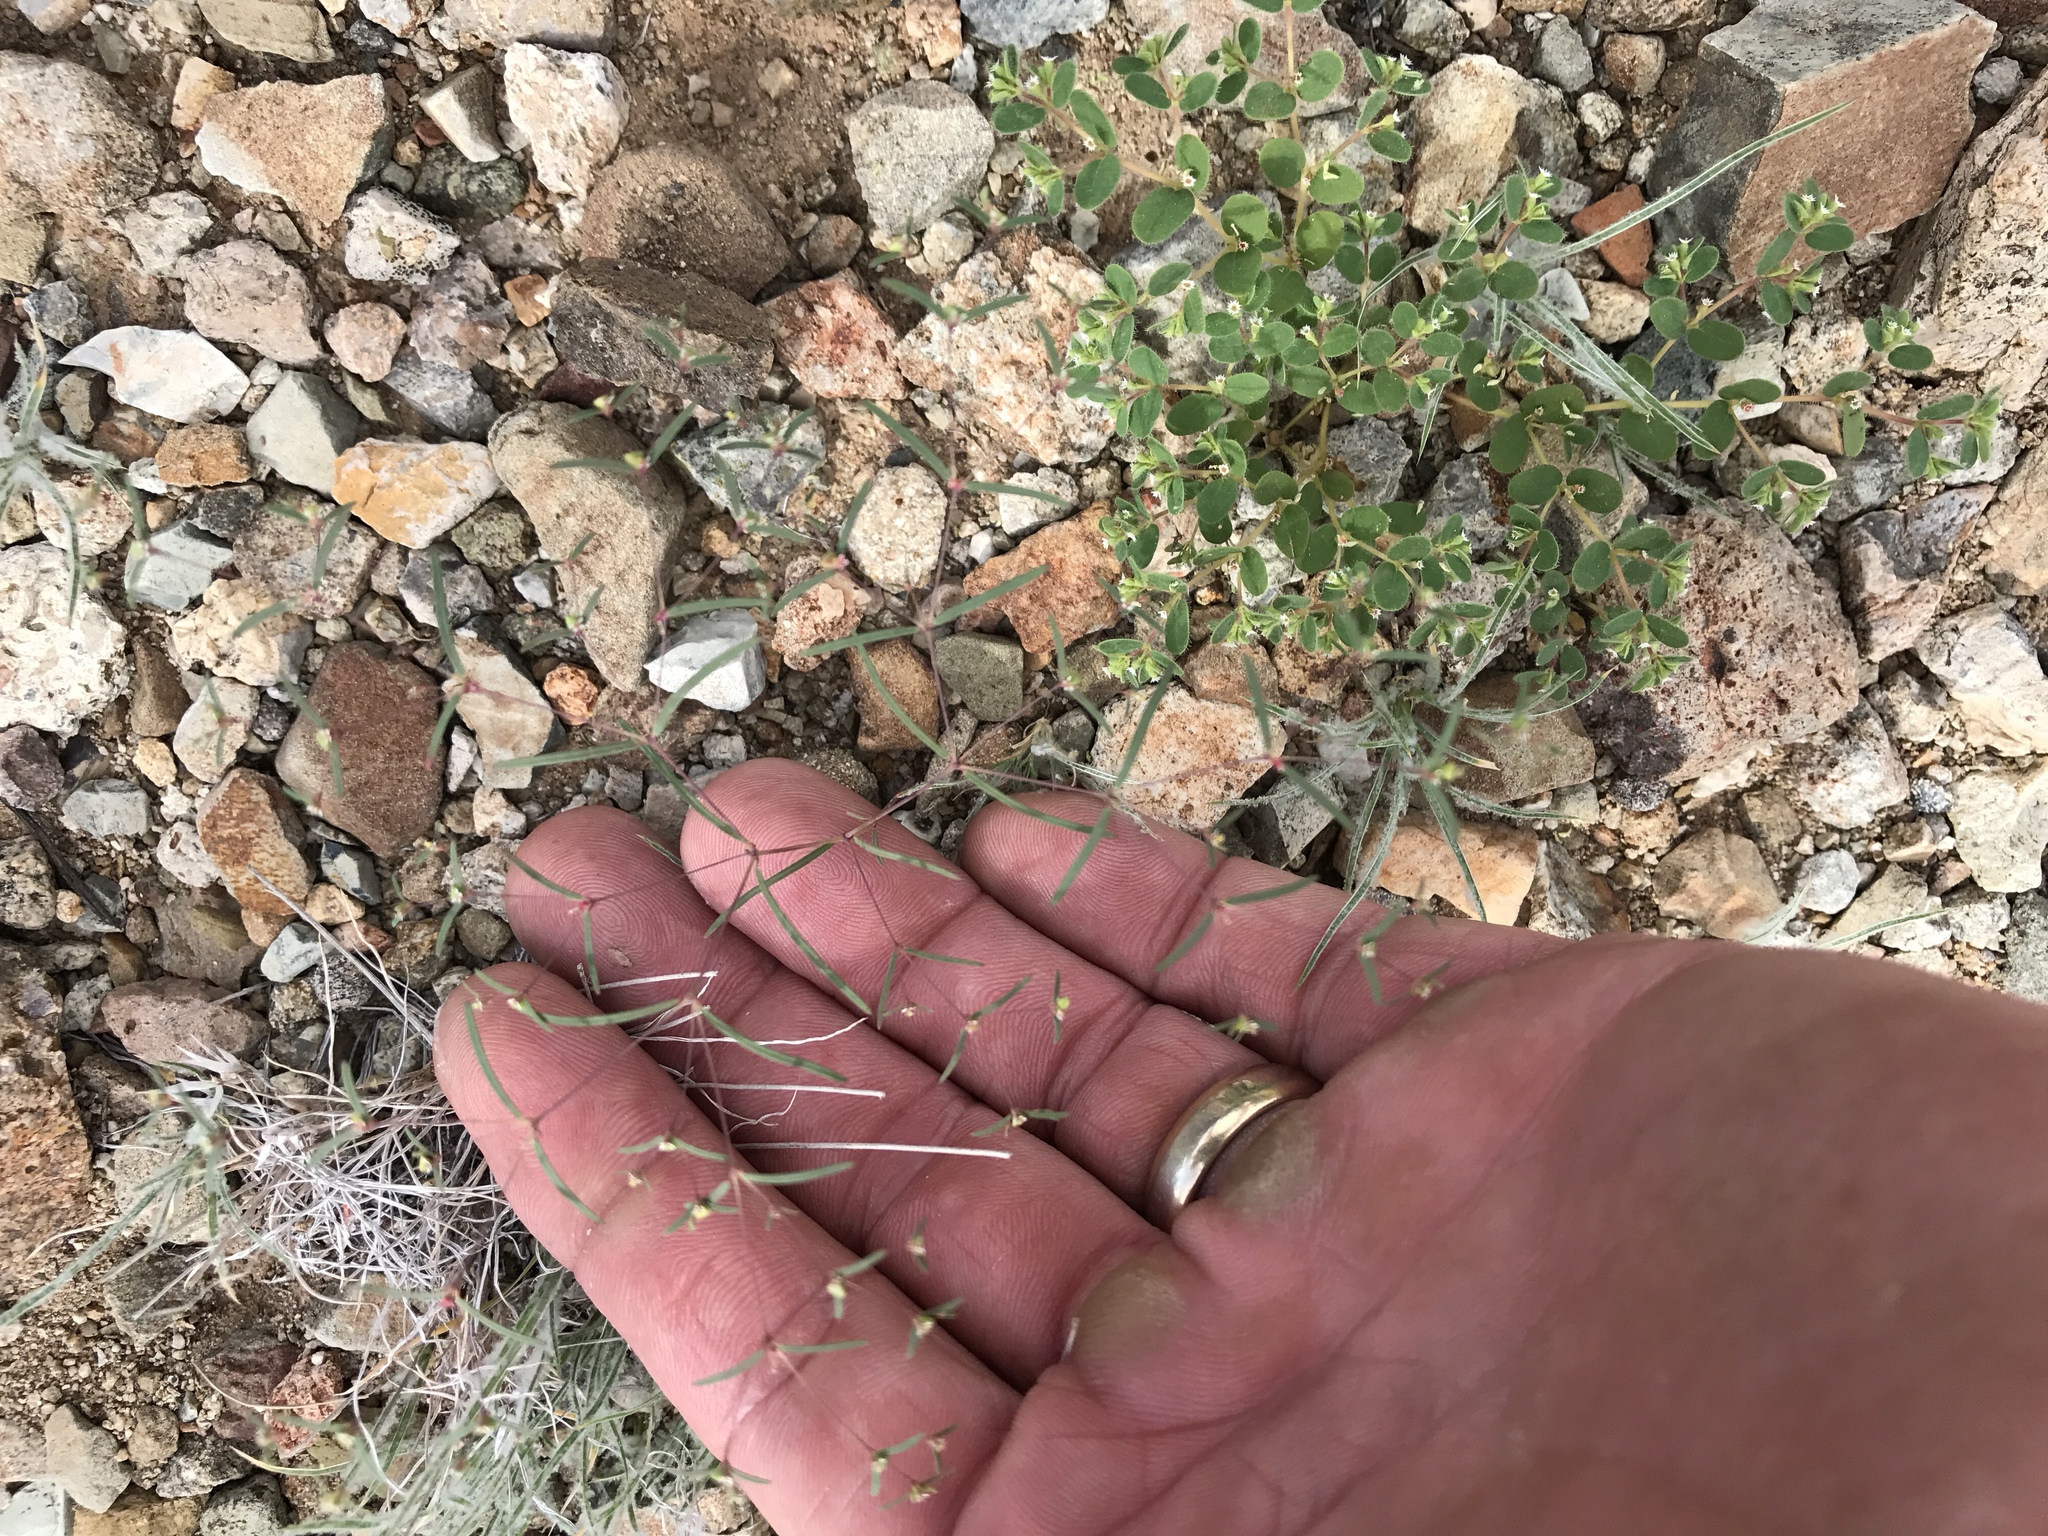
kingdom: Plantae
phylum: Tracheophyta
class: Magnoliopsida
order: Malpighiales
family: Euphorbiaceae
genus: Euphorbia
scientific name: Euphorbia gracillima
